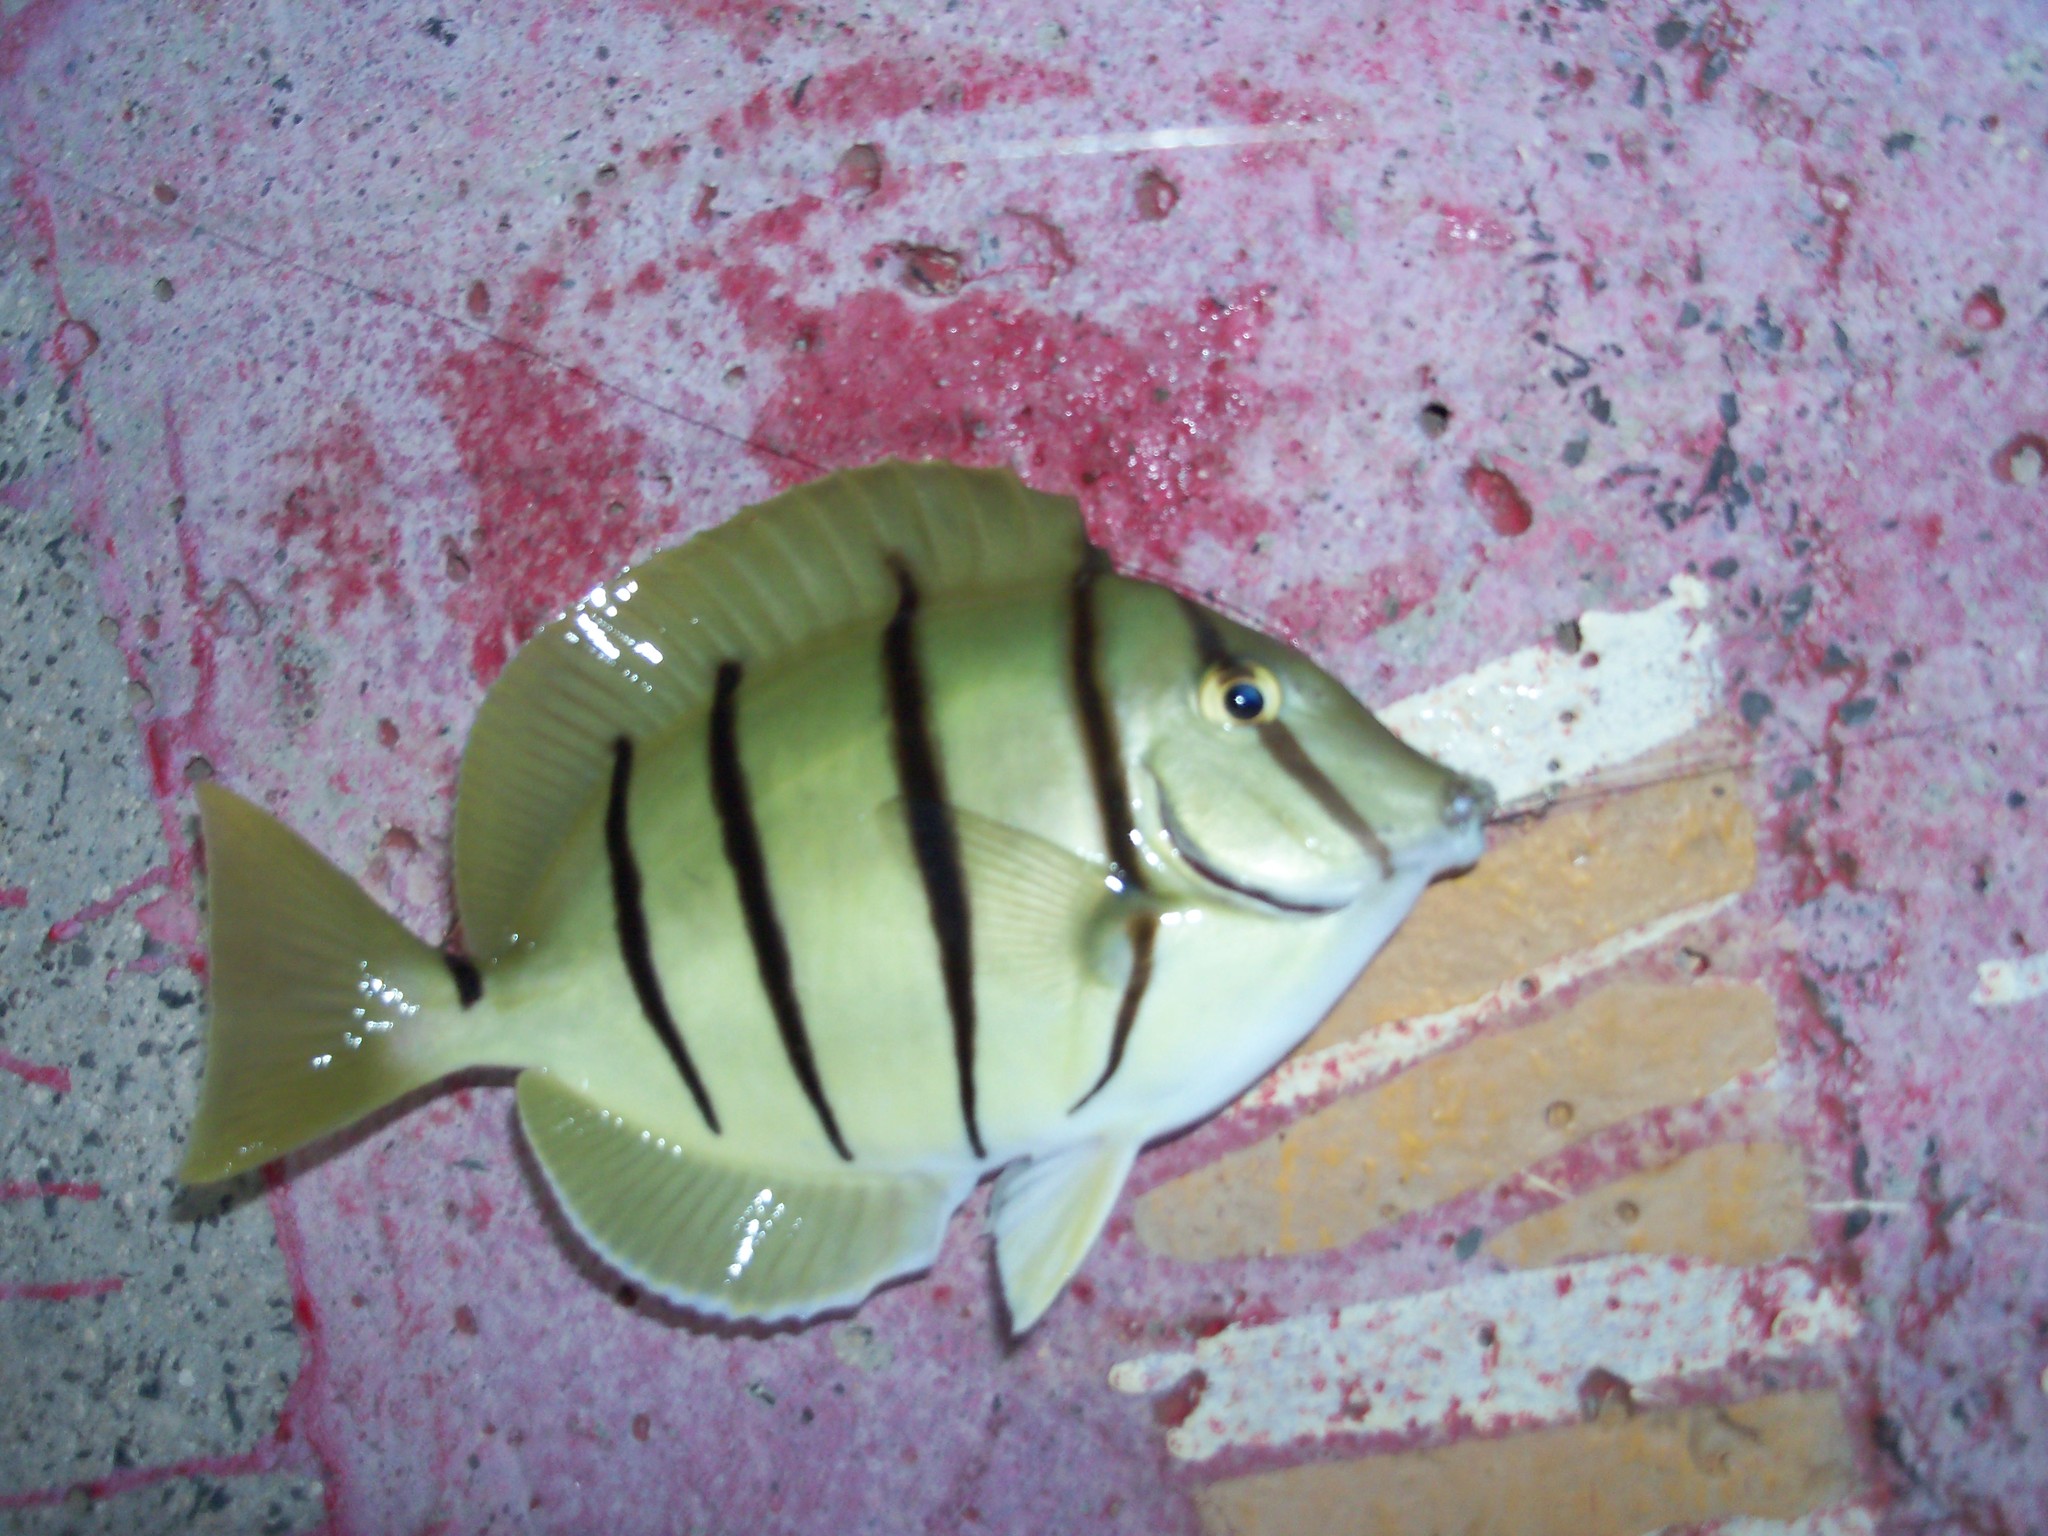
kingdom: Animalia
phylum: Chordata
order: Perciformes
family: Acanthuridae
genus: Acanthurus
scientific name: Acanthurus triostegus
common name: Convict surgeonfish
